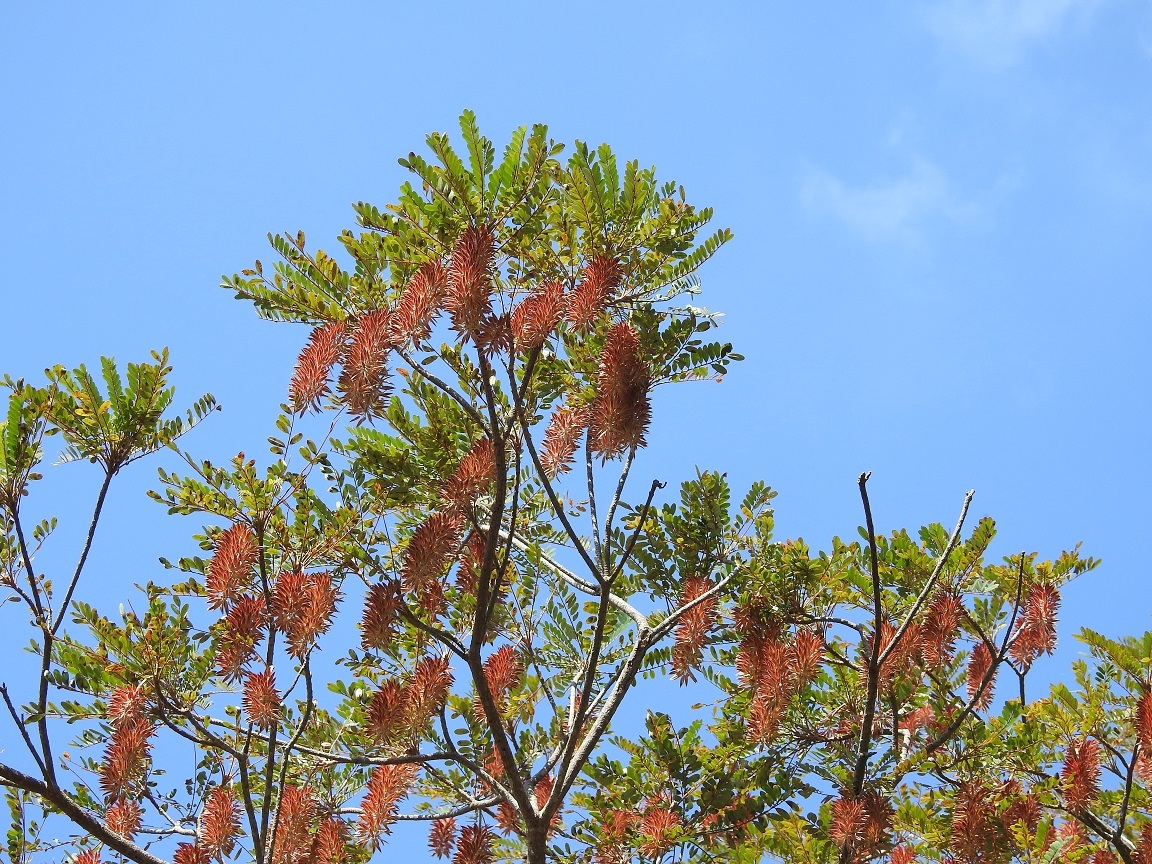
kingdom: Plantae
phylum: Tracheophyta
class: Magnoliopsida
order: Picramniales
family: Picramniaceae
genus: Alvaradoa
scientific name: Alvaradoa amorphoides
